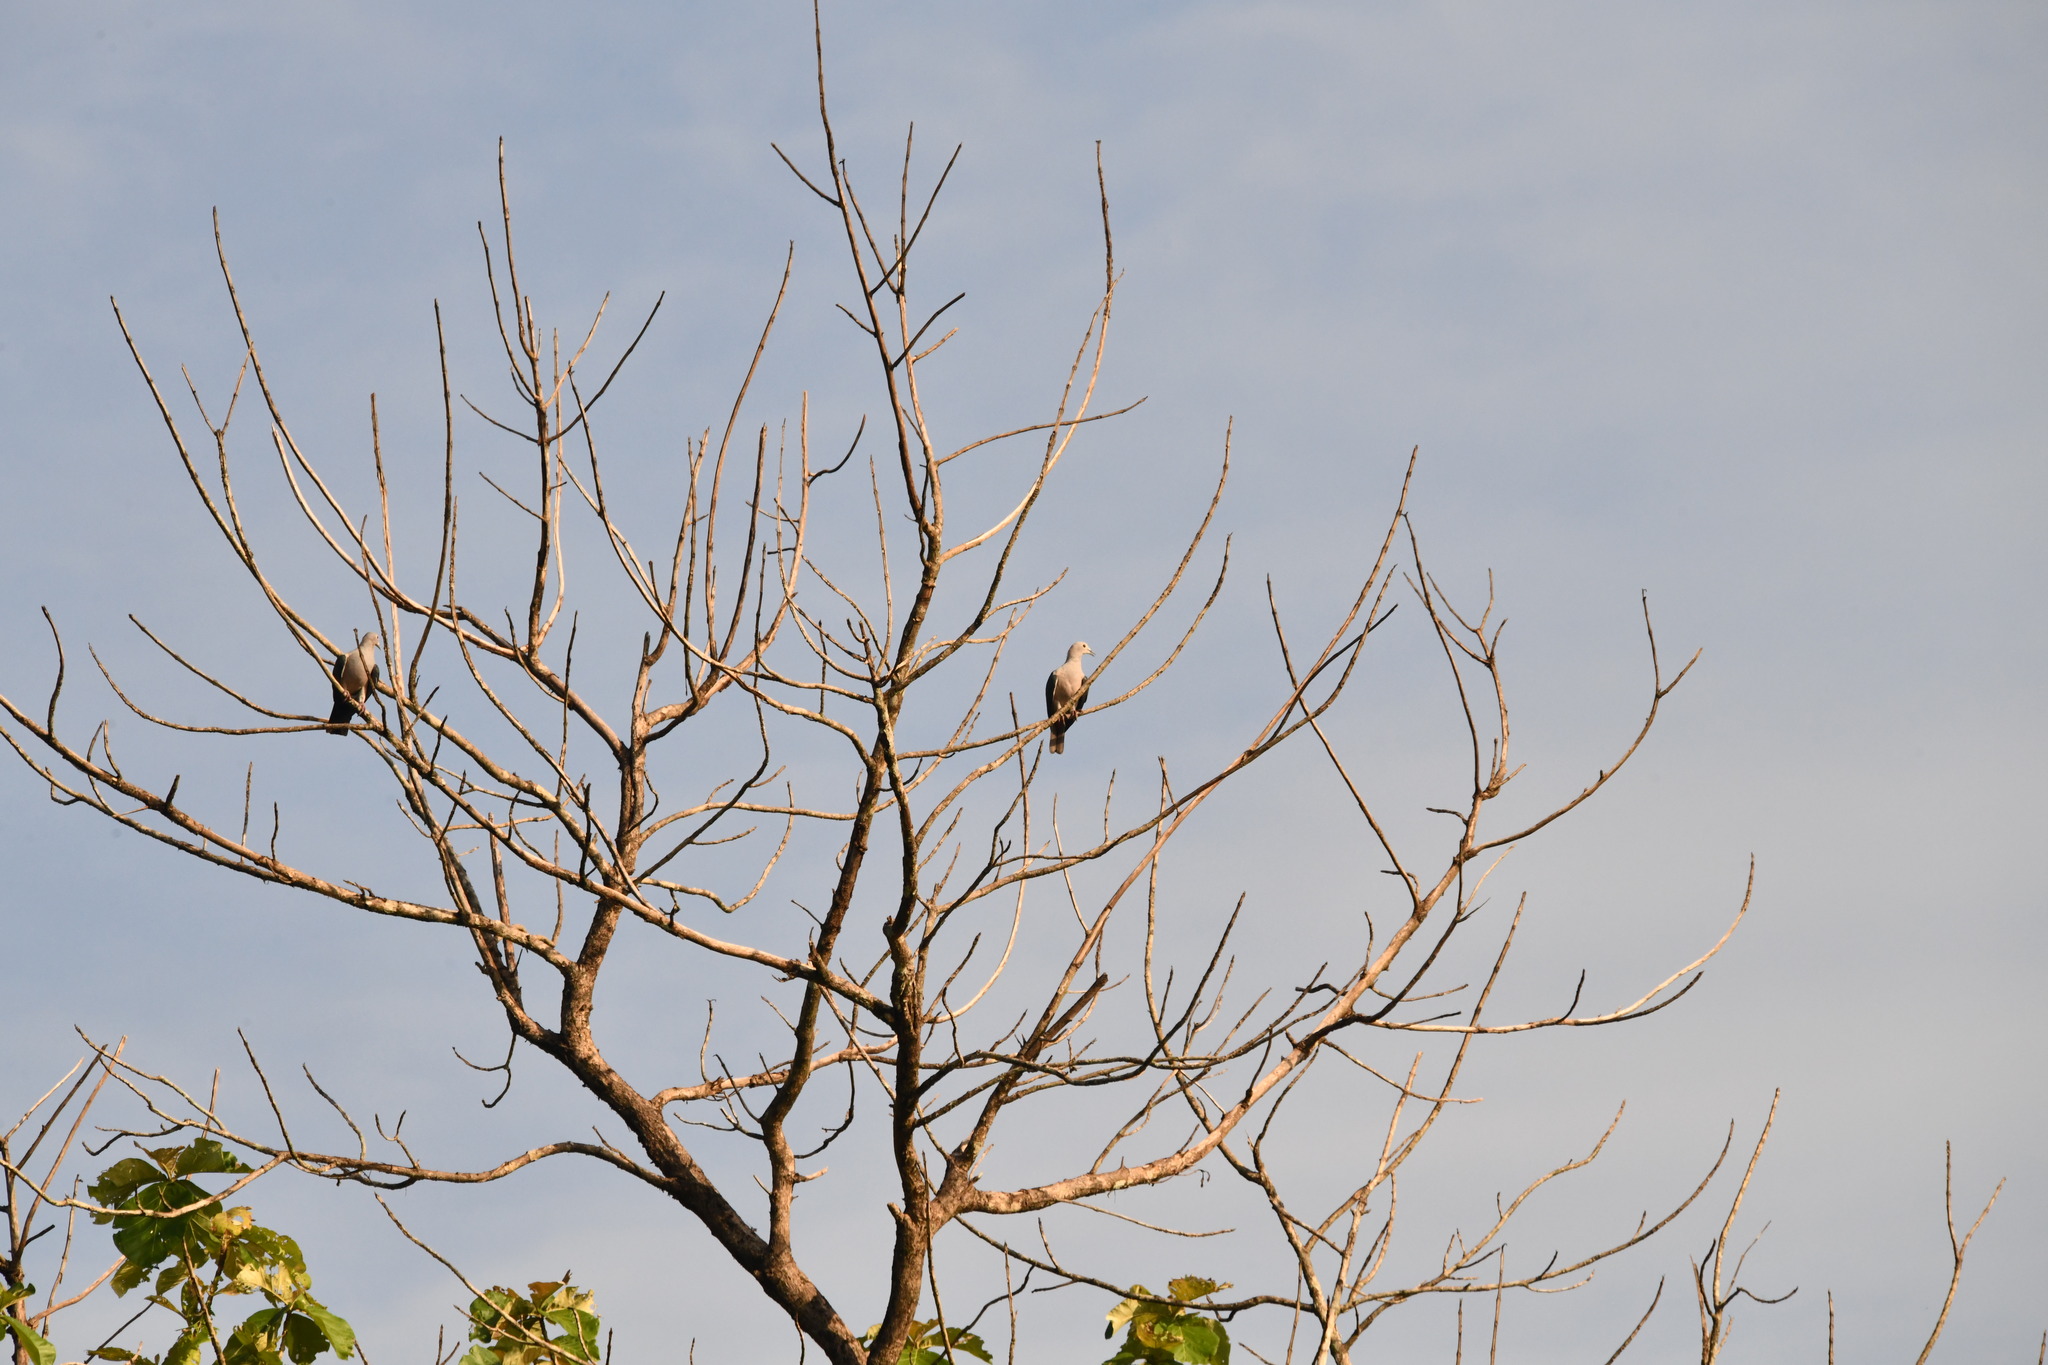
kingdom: Animalia
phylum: Chordata
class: Aves
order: Columbiformes
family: Columbidae
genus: Ducula
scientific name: Ducula aenea
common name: Green imperial pigeon
